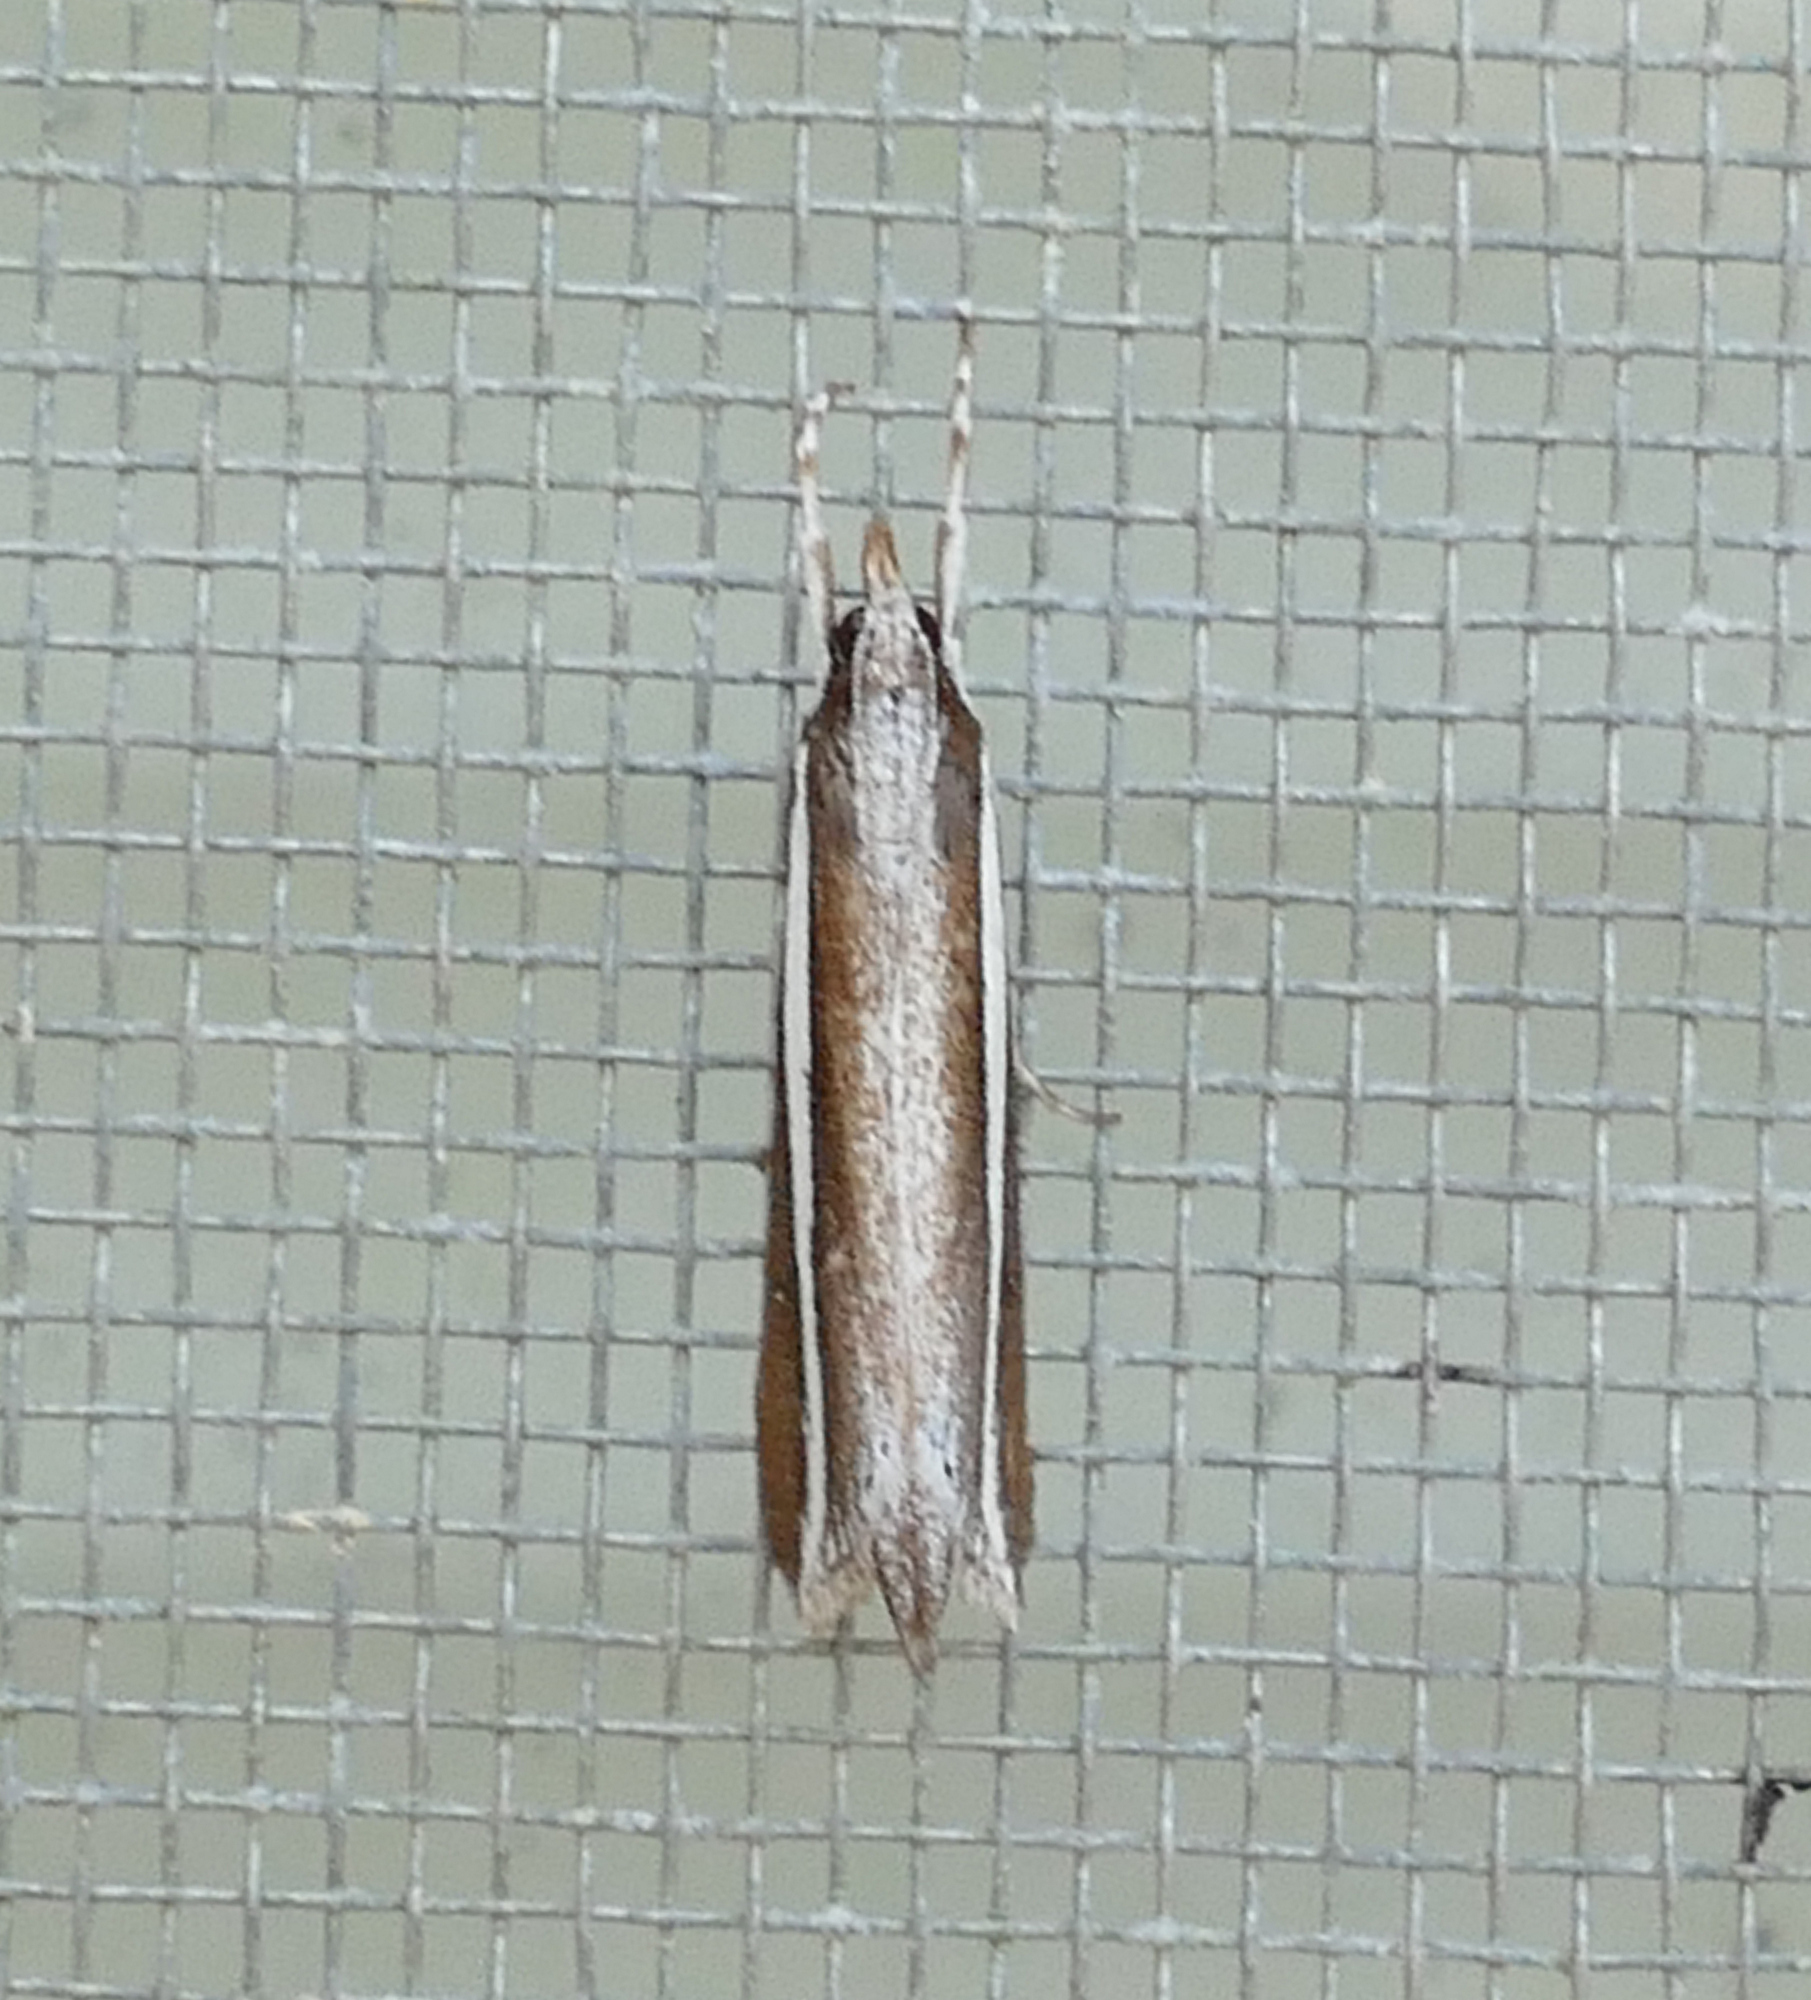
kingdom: Animalia
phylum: Arthropoda
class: Insecta
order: Lepidoptera
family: Crambidae
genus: Carectocultus
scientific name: Carectocultus perstrialis
